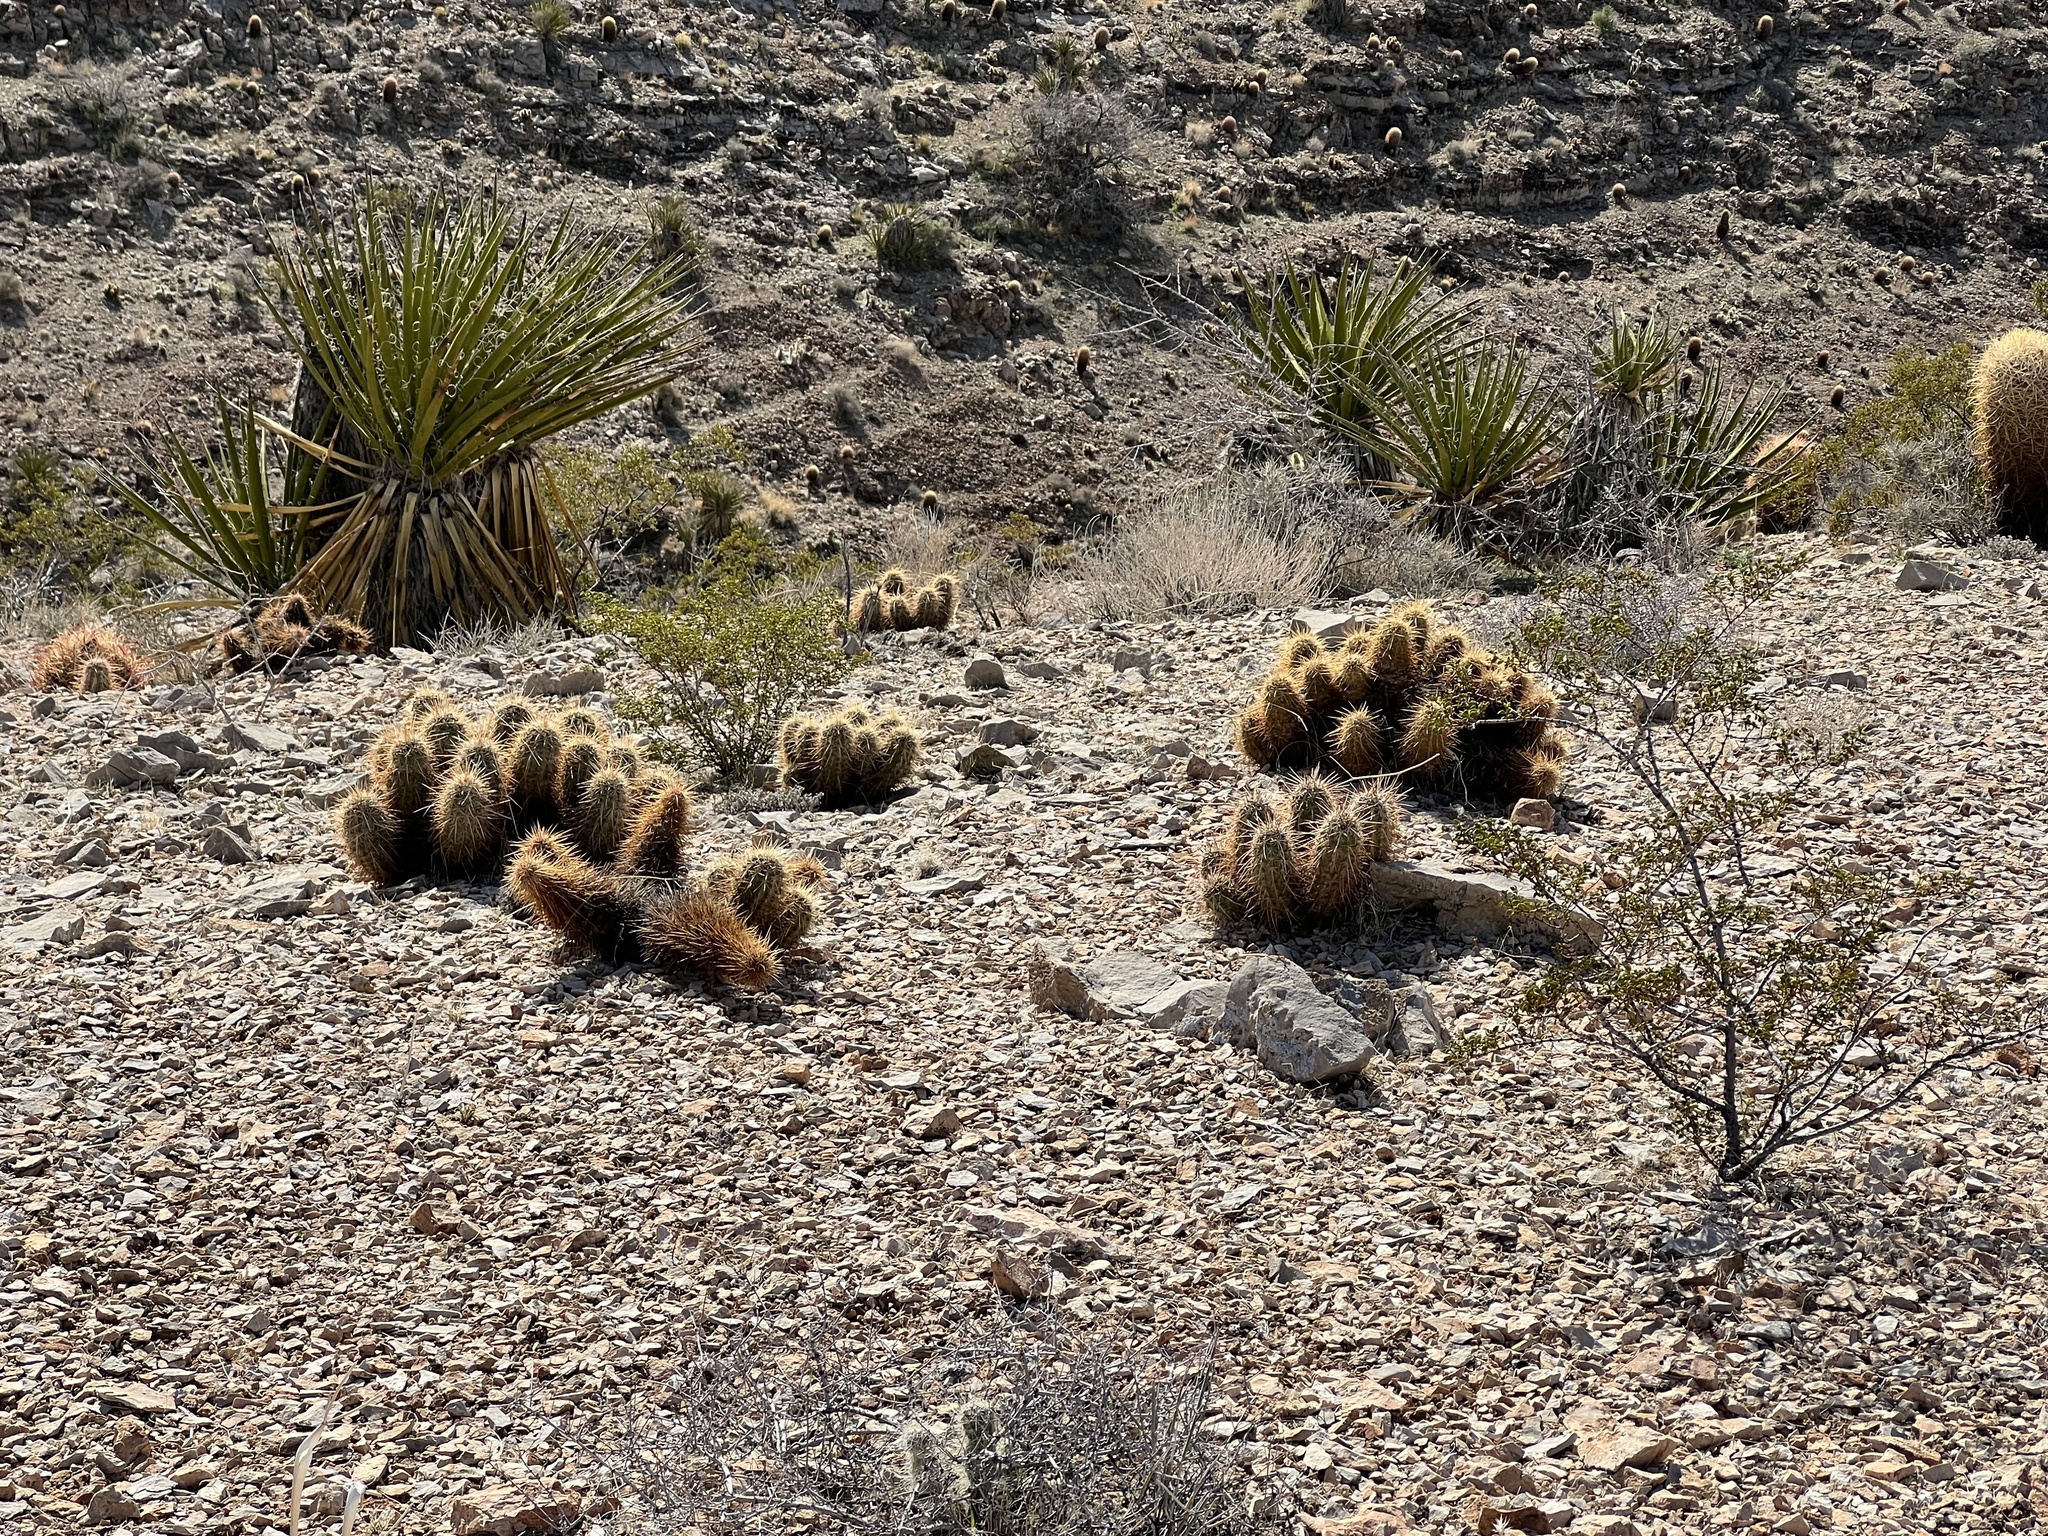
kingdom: Plantae
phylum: Tracheophyta
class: Magnoliopsida
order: Caryophyllales
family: Cactaceae
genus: Echinocereus
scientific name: Echinocereus engelmannii
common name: Engelmann's hedgehog cactus
